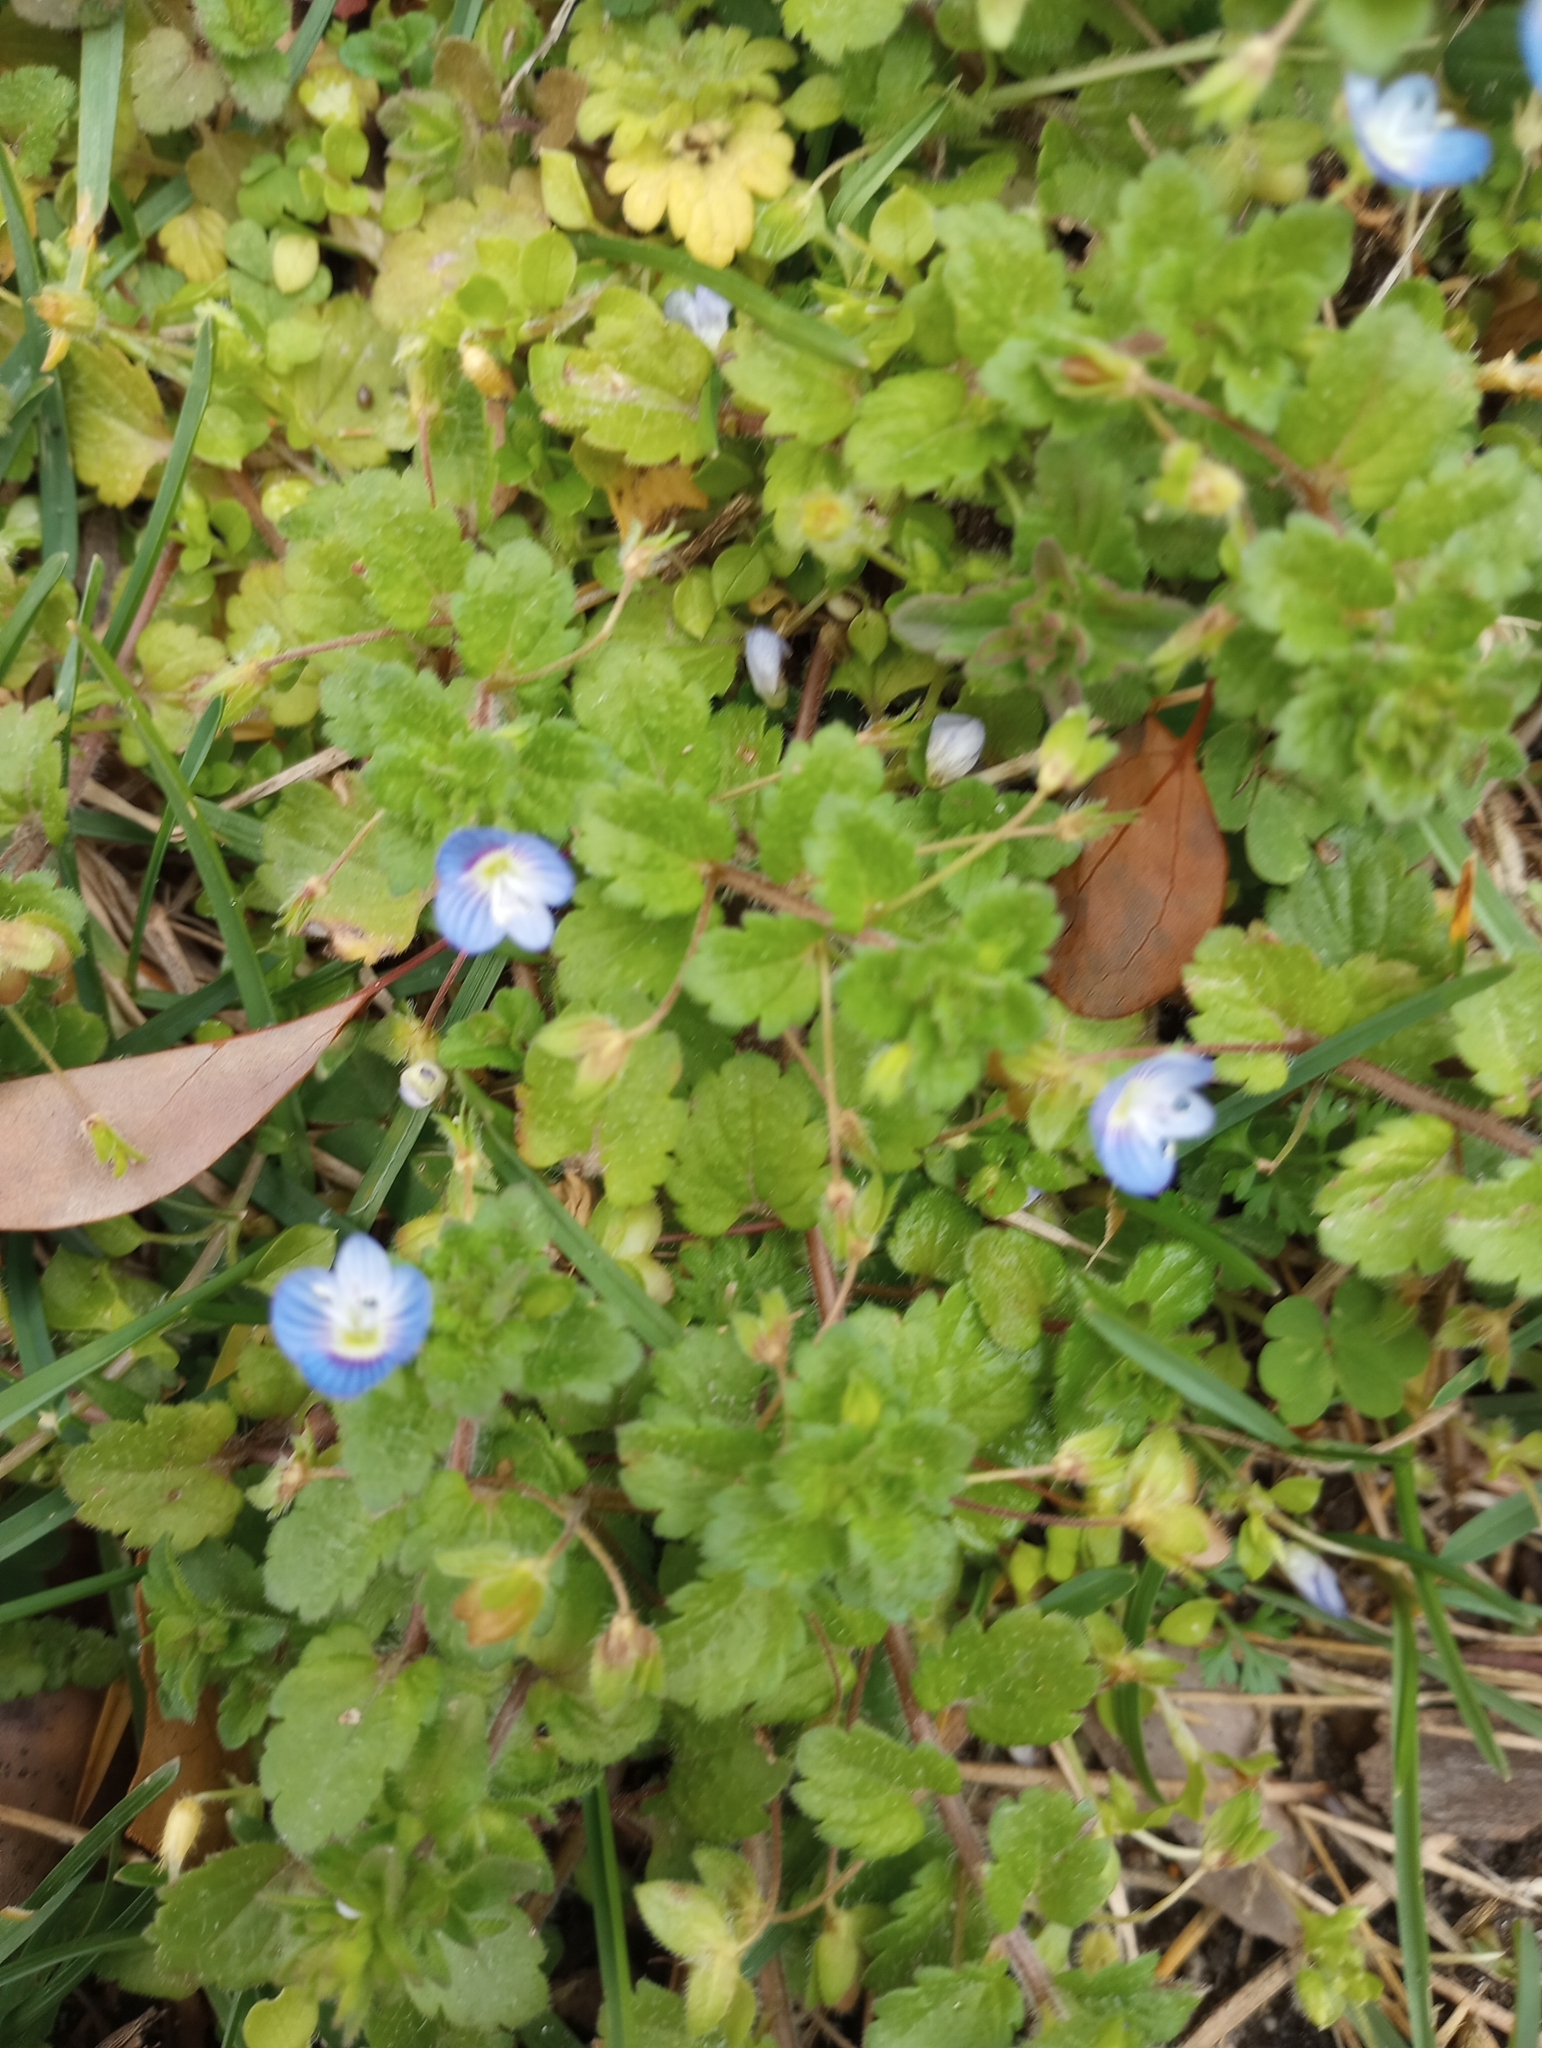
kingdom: Plantae
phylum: Tracheophyta
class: Magnoliopsida
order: Lamiales
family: Plantaginaceae
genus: Veronica
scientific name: Veronica persica
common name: Common field-speedwell
